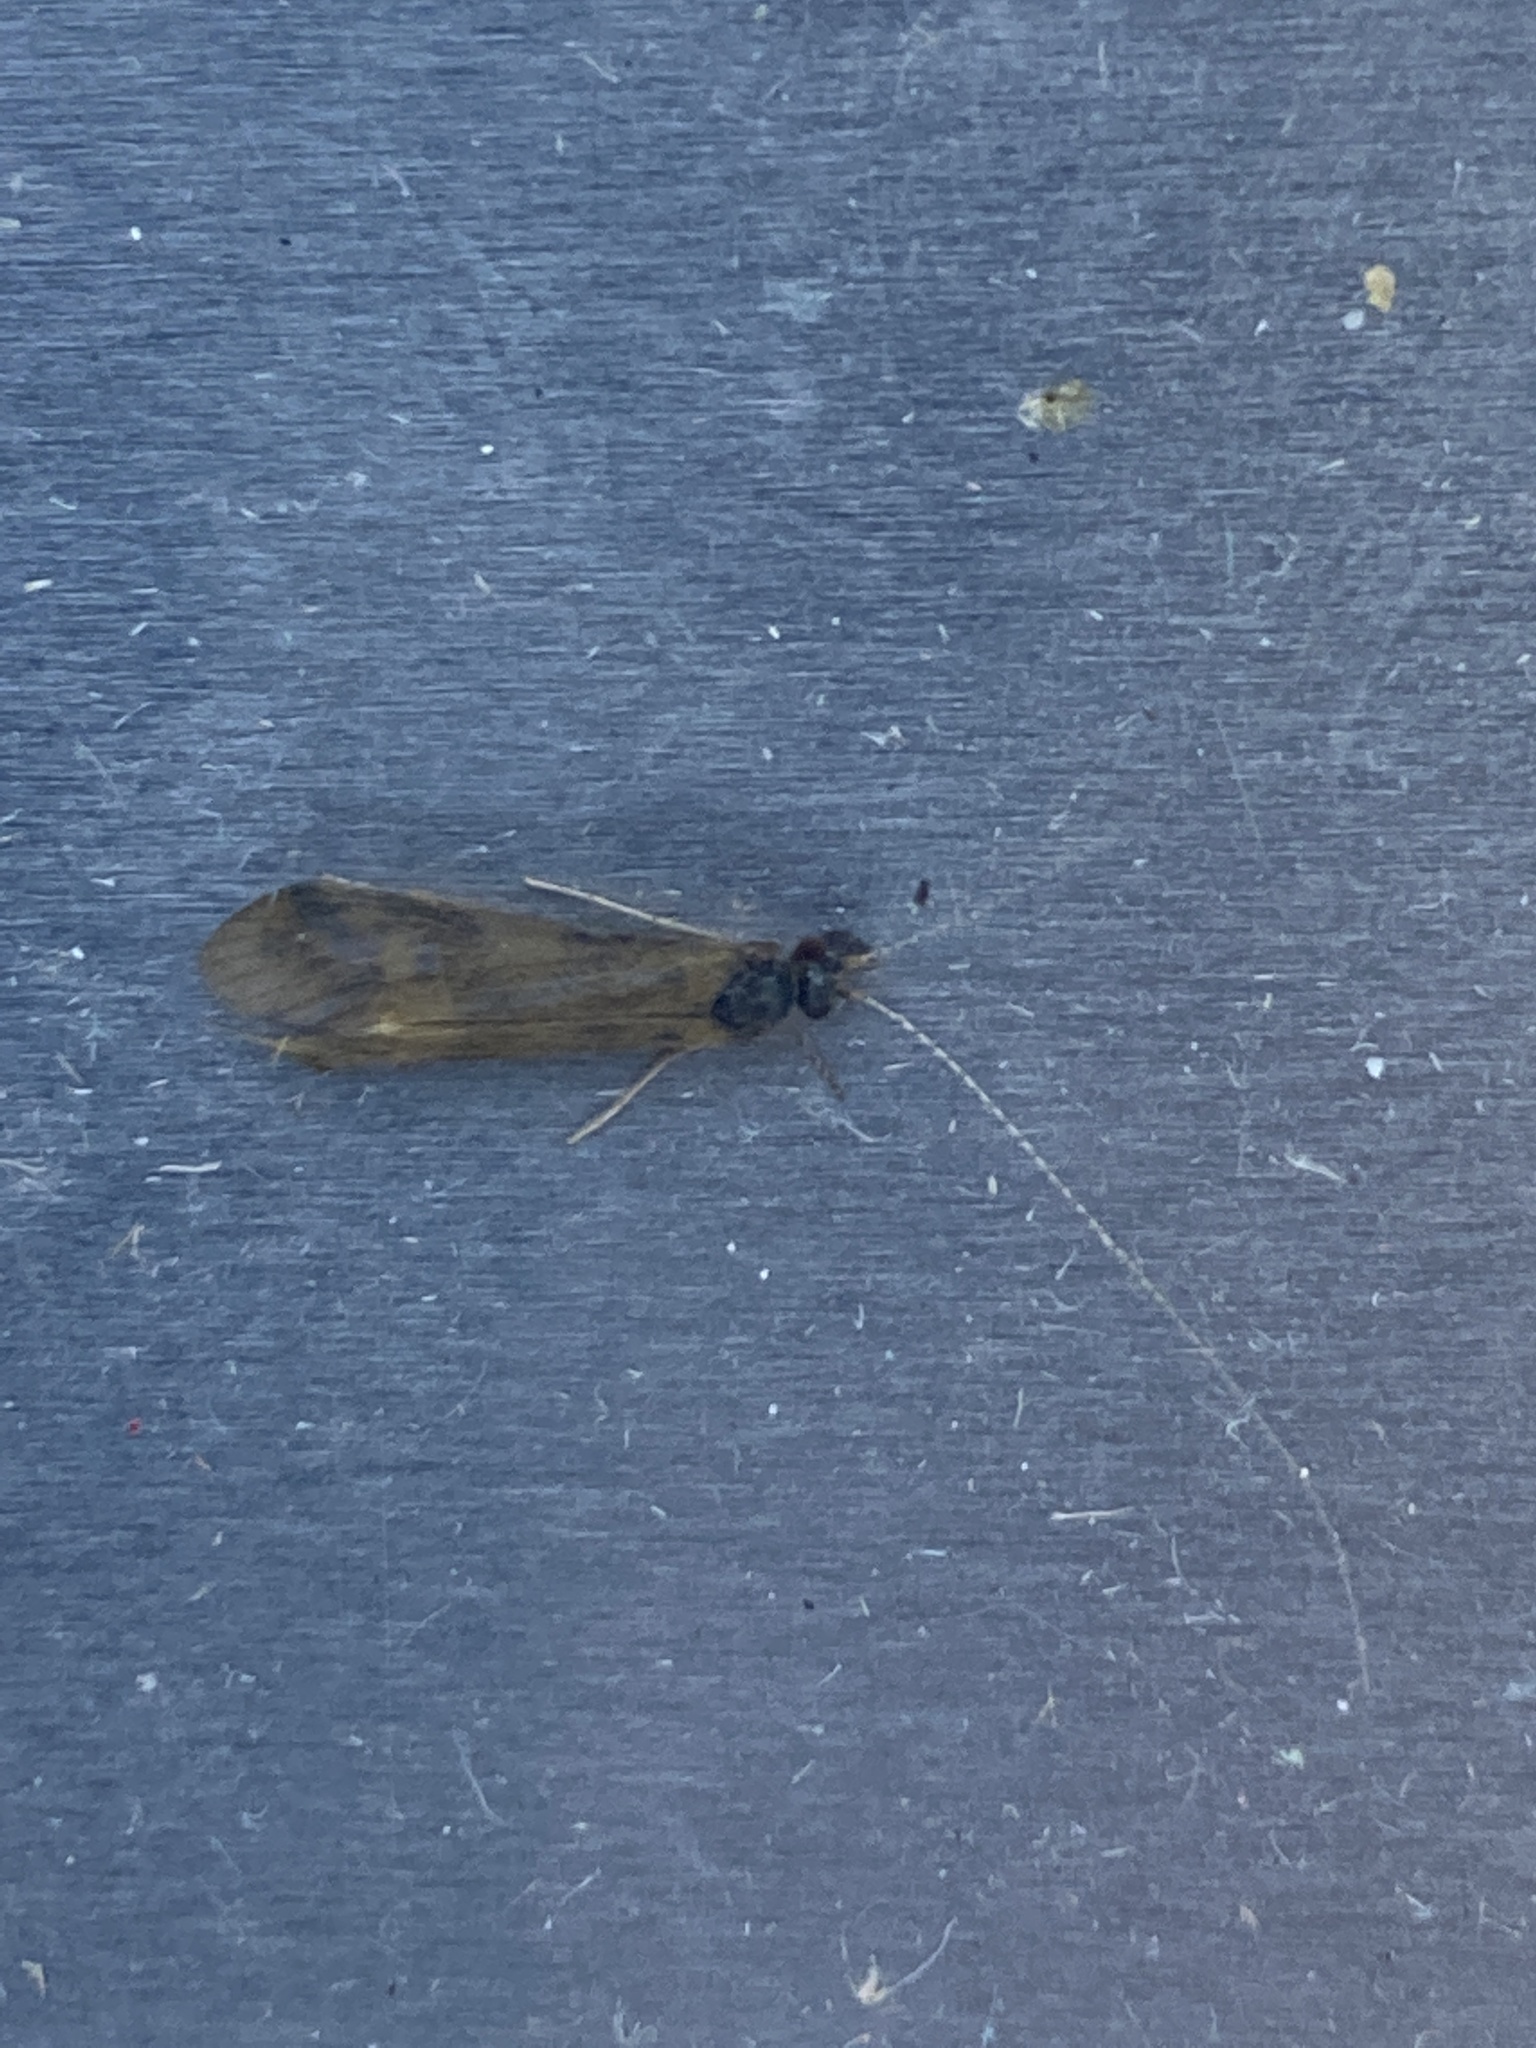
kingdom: Animalia
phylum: Arthropoda
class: Insecta
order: Trichoptera
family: Leptoceridae
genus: Mystacides
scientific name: Mystacides longicornis
